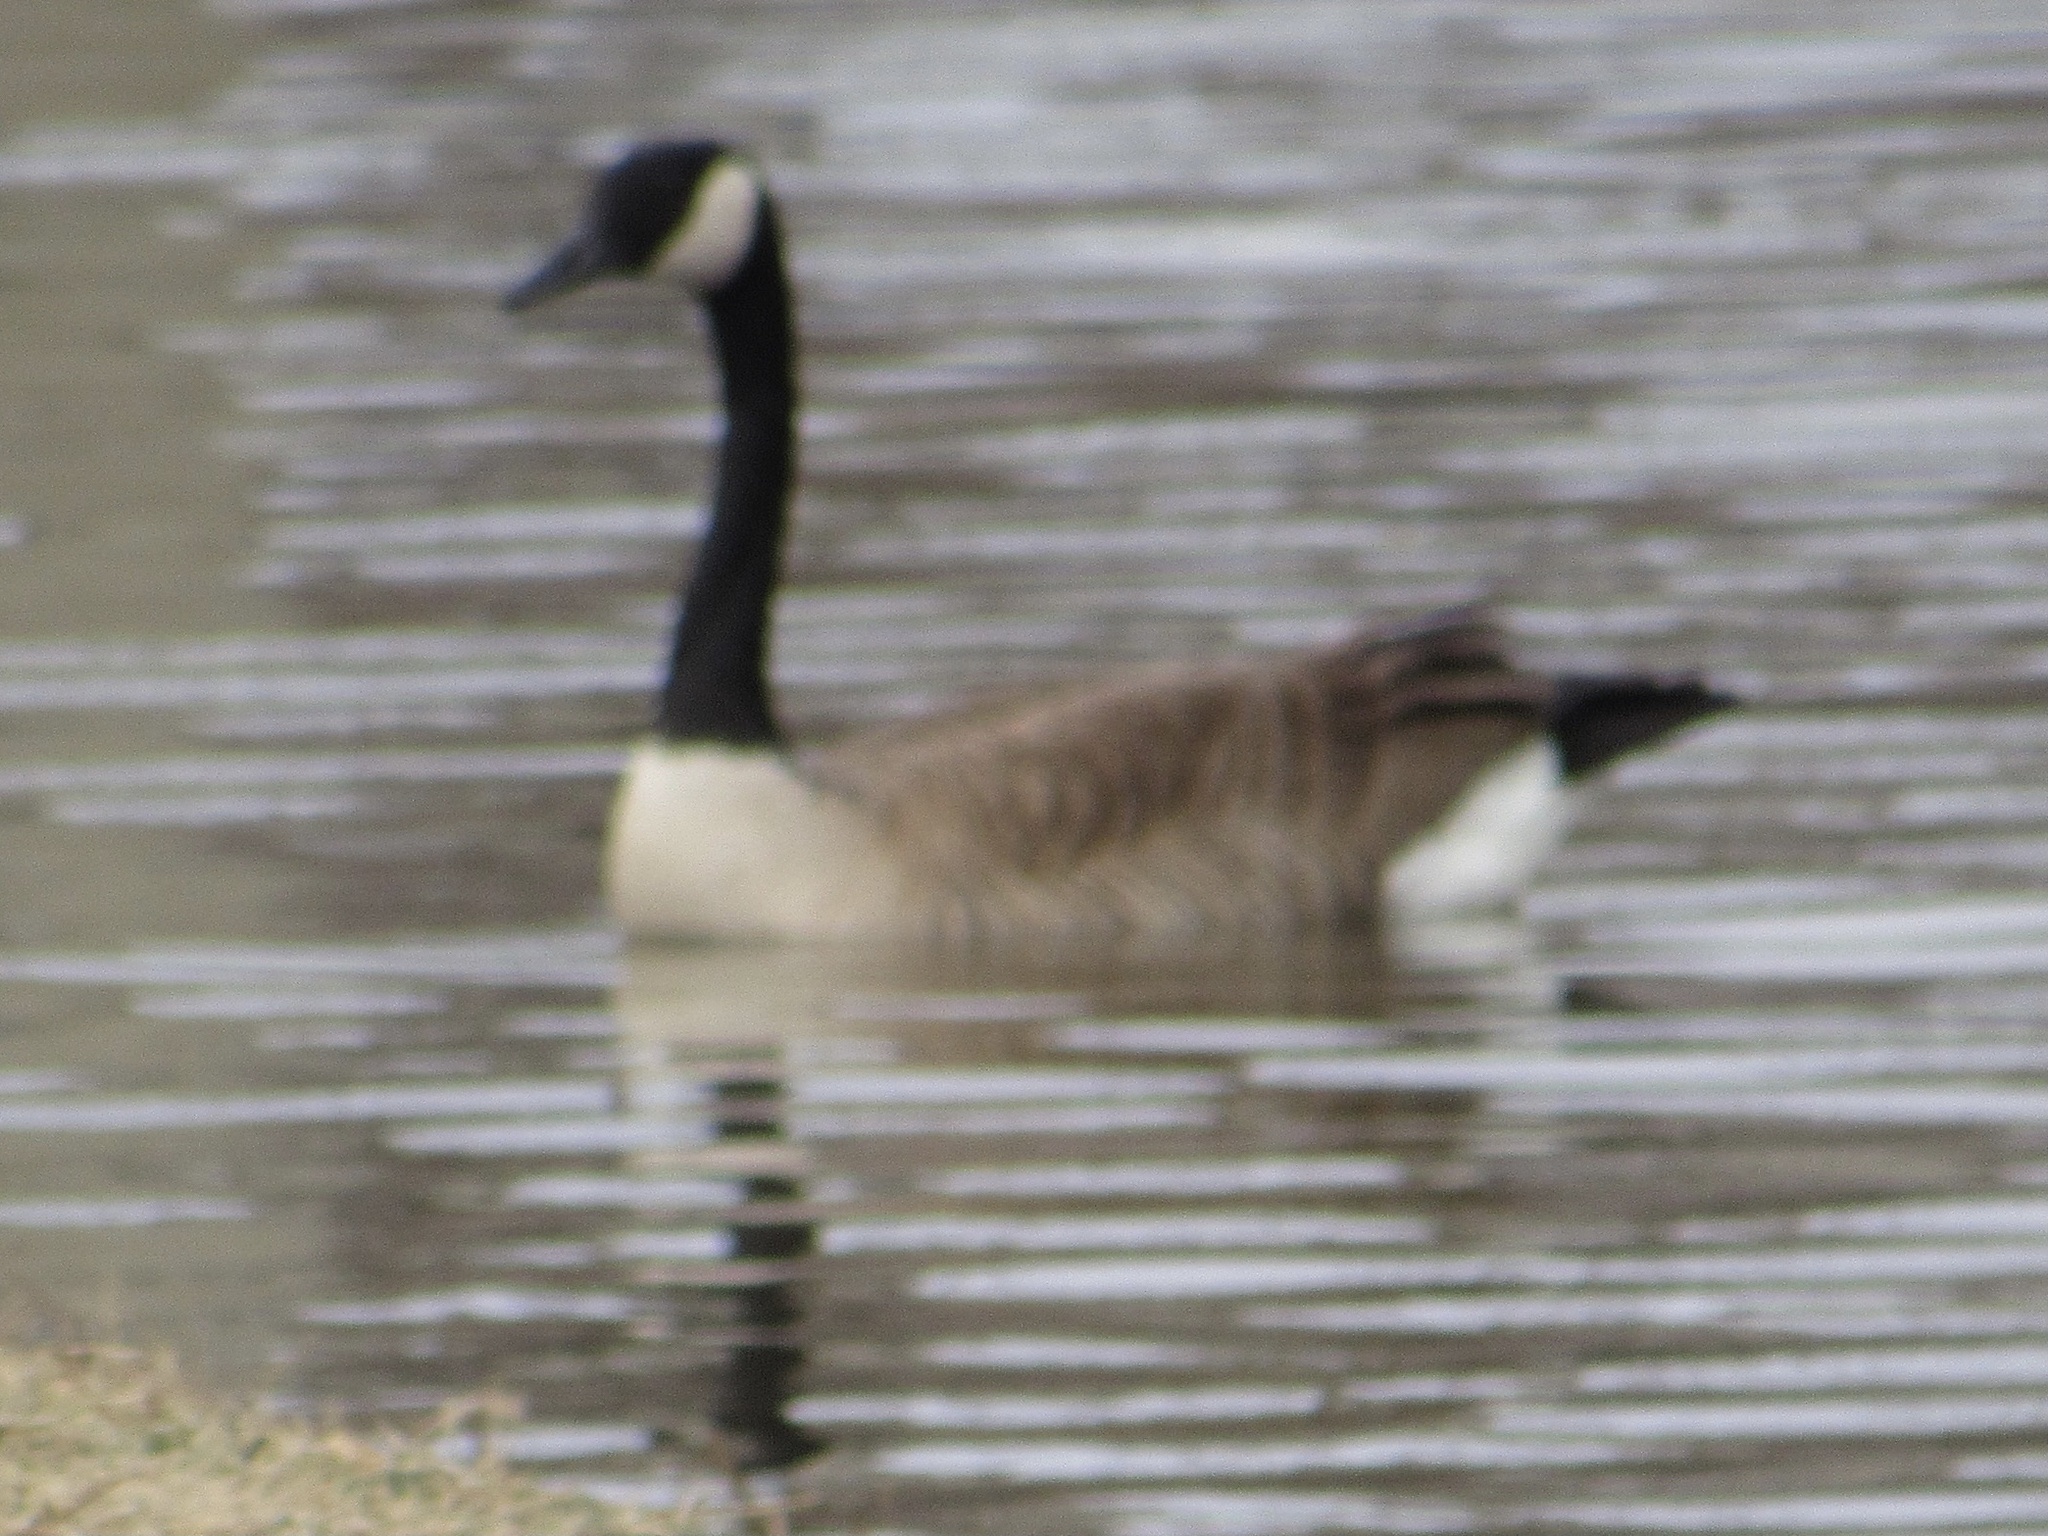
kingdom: Animalia
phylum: Chordata
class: Aves
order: Anseriformes
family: Anatidae
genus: Branta
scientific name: Branta canadensis
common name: Canada goose
